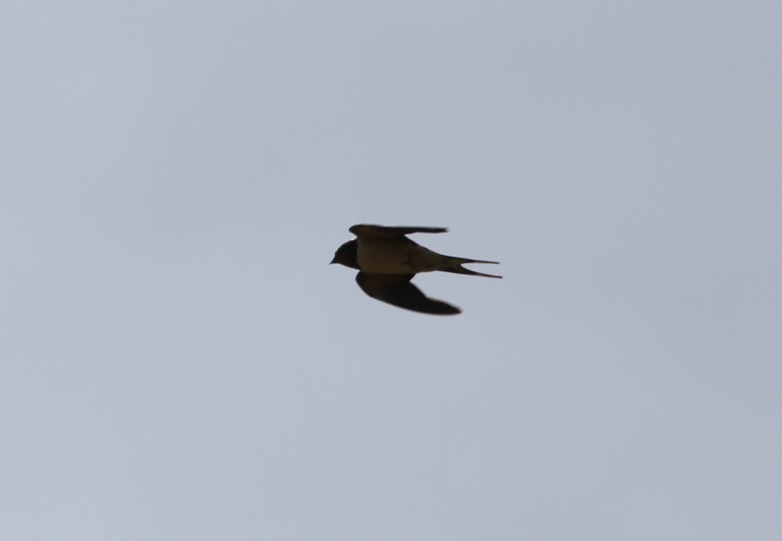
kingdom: Animalia
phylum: Chordata
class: Aves
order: Passeriformes
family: Hirundinidae
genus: Hirundo
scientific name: Hirundo rustica
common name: Barn swallow
